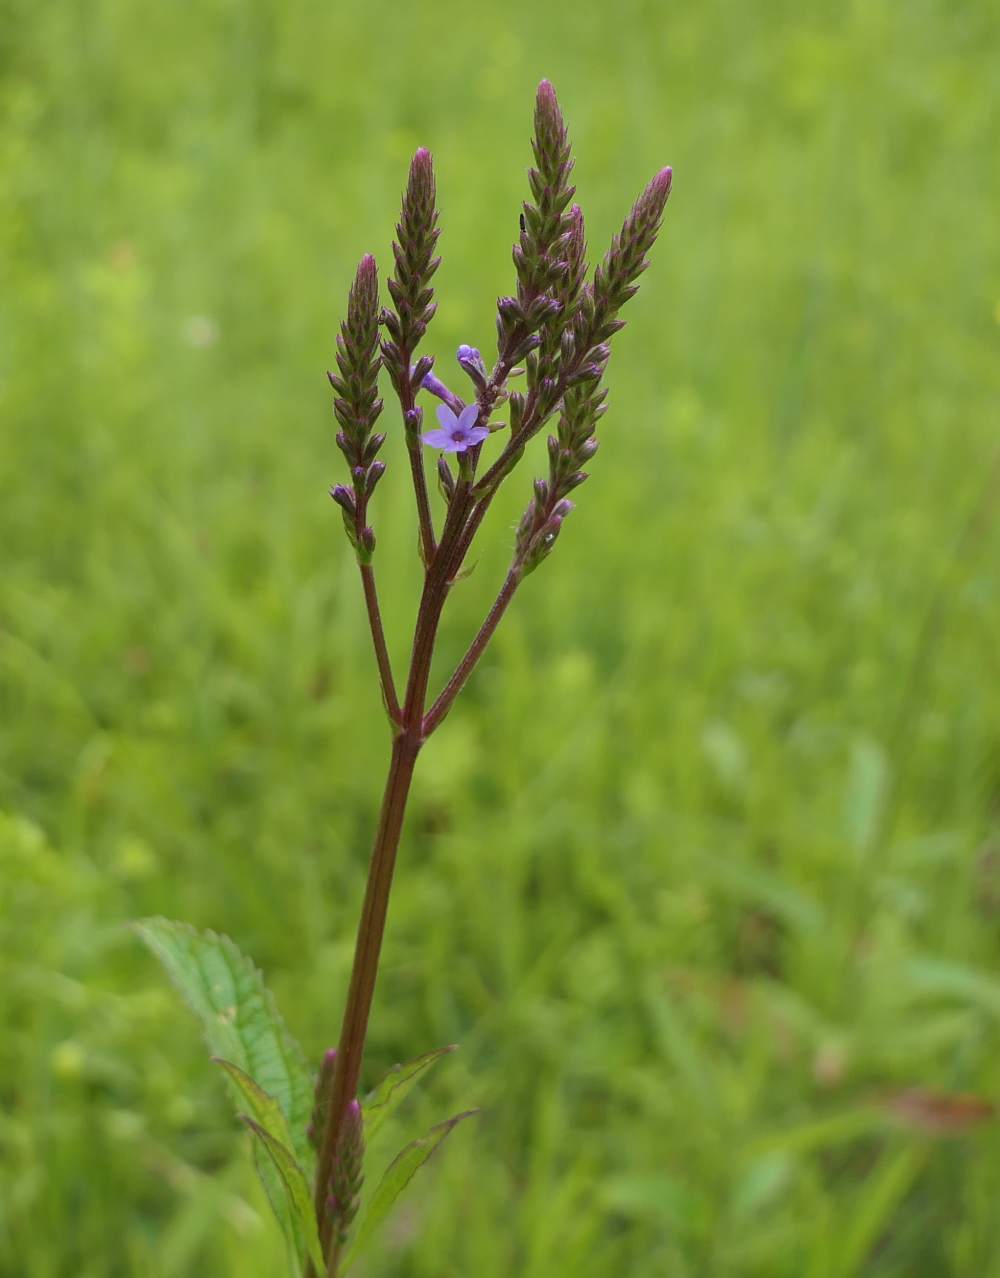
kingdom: Plantae
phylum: Tracheophyta
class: Magnoliopsida
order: Lamiales
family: Verbenaceae
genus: Verbena
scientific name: Verbena hastata
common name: American blue vervain
